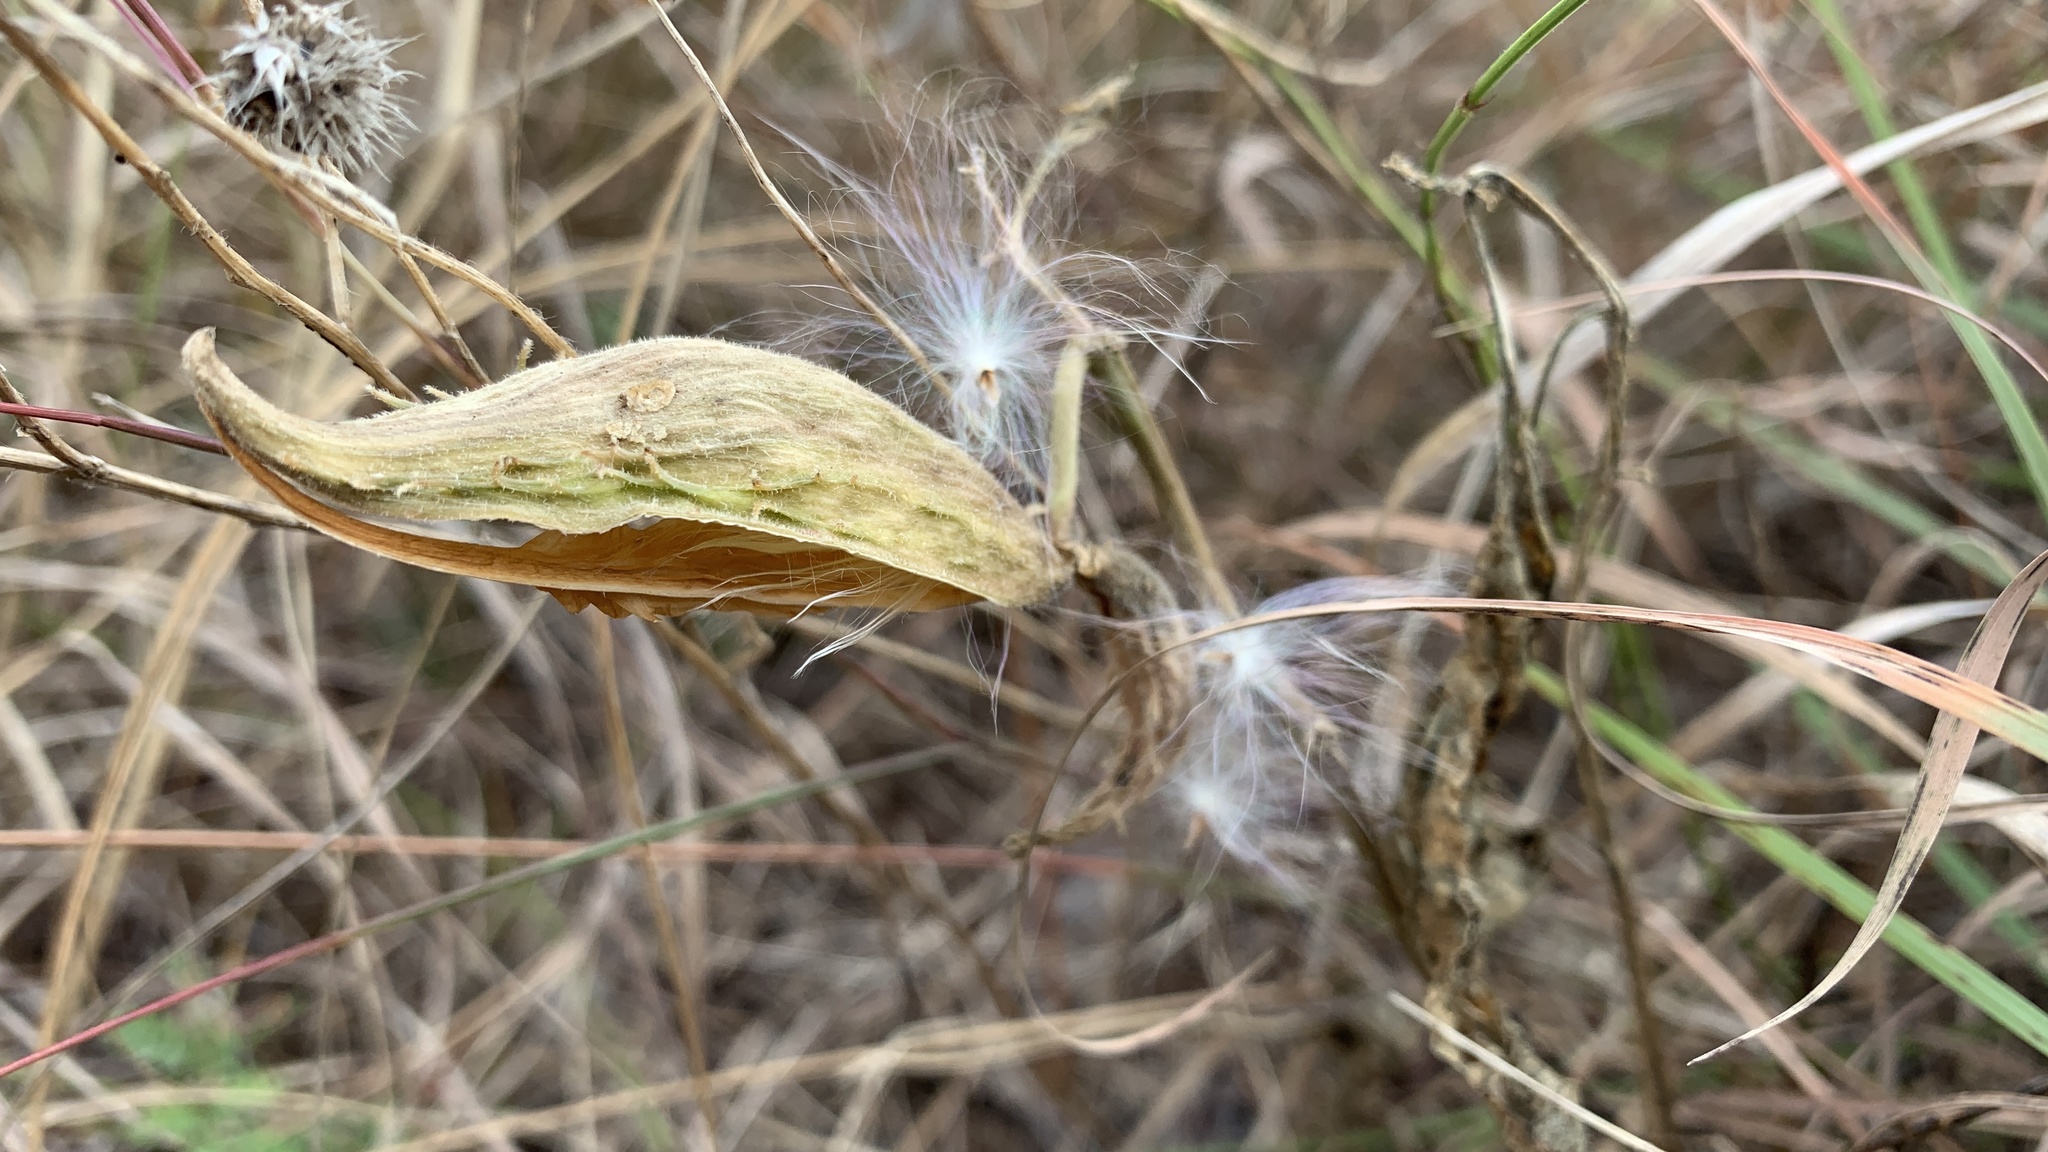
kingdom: Plantae
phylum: Tracheophyta
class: Magnoliopsida
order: Gentianales
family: Apocynaceae
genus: Asclepias
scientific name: Asclepias asperula
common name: Antelope horns
